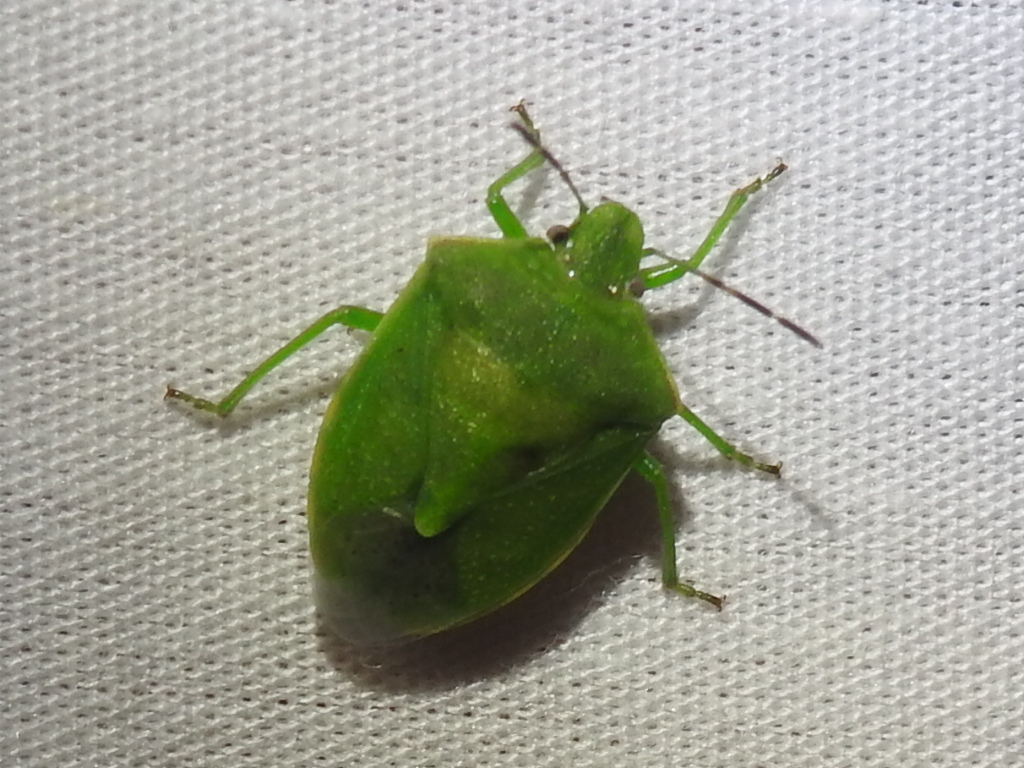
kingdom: Animalia
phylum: Arthropoda
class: Insecta
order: Hemiptera
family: Pentatomidae
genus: Thyanta
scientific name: Thyanta custator
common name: Stink bug
